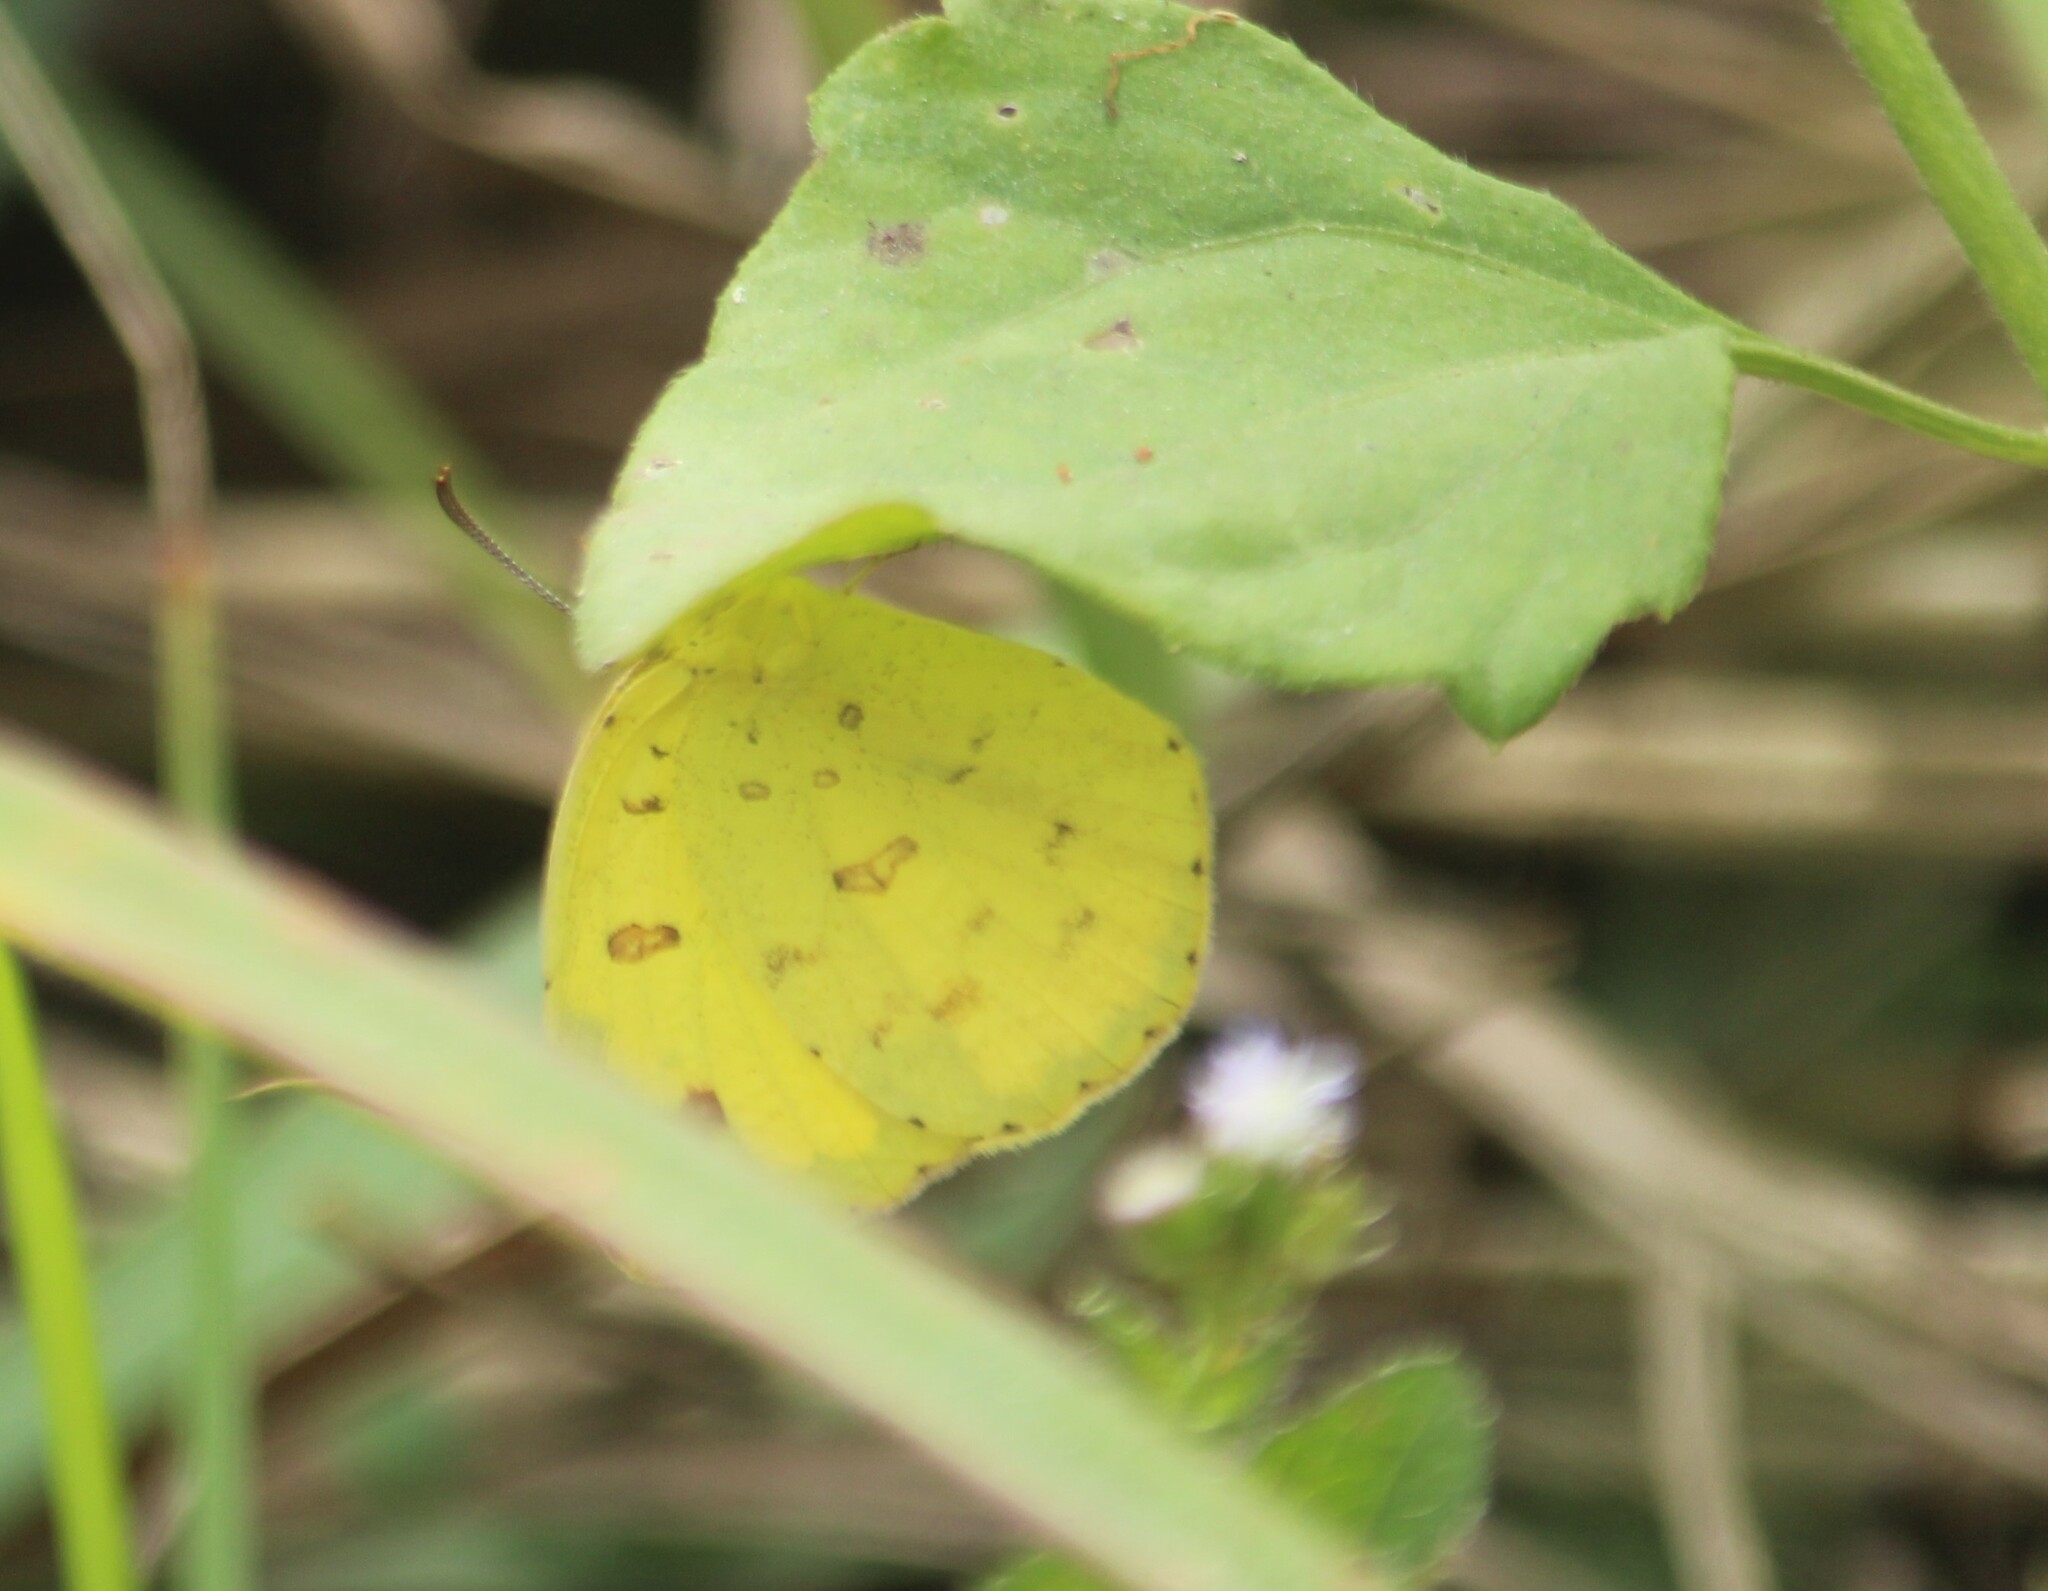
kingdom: Animalia
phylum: Arthropoda
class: Insecta
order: Lepidoptera
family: Pieridae
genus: Eurema
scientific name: Eurema hecabe
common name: Pale grass yellow
